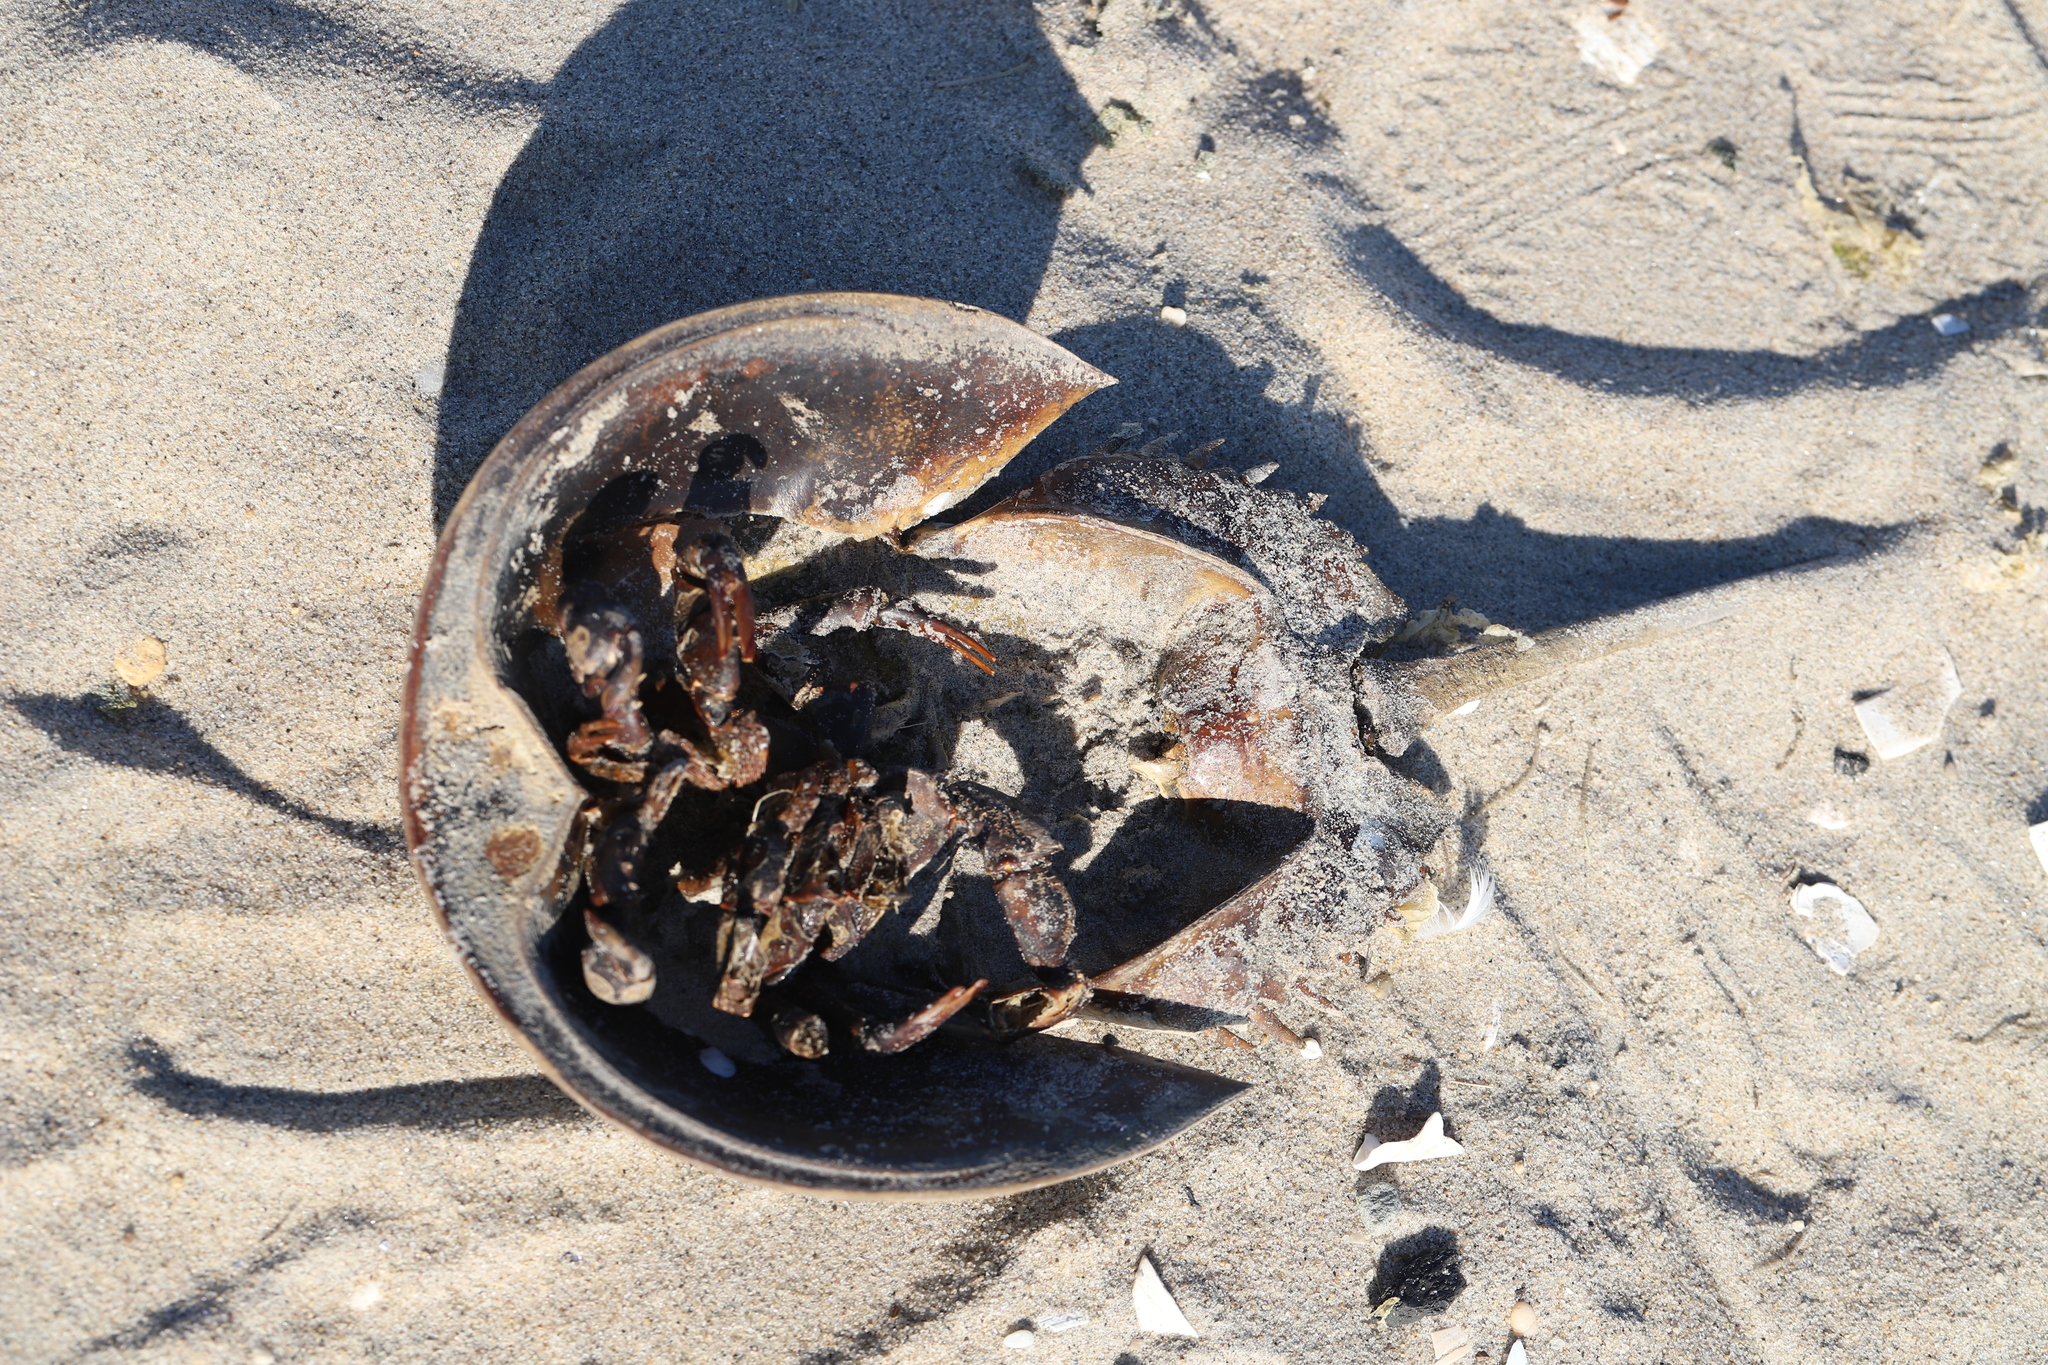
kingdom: Animalia
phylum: Arthropoda
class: Merostomata
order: Xiphosurida
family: Limulidae
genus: Limulus
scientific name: Limulus polyphemus
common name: Horseshoe crab
